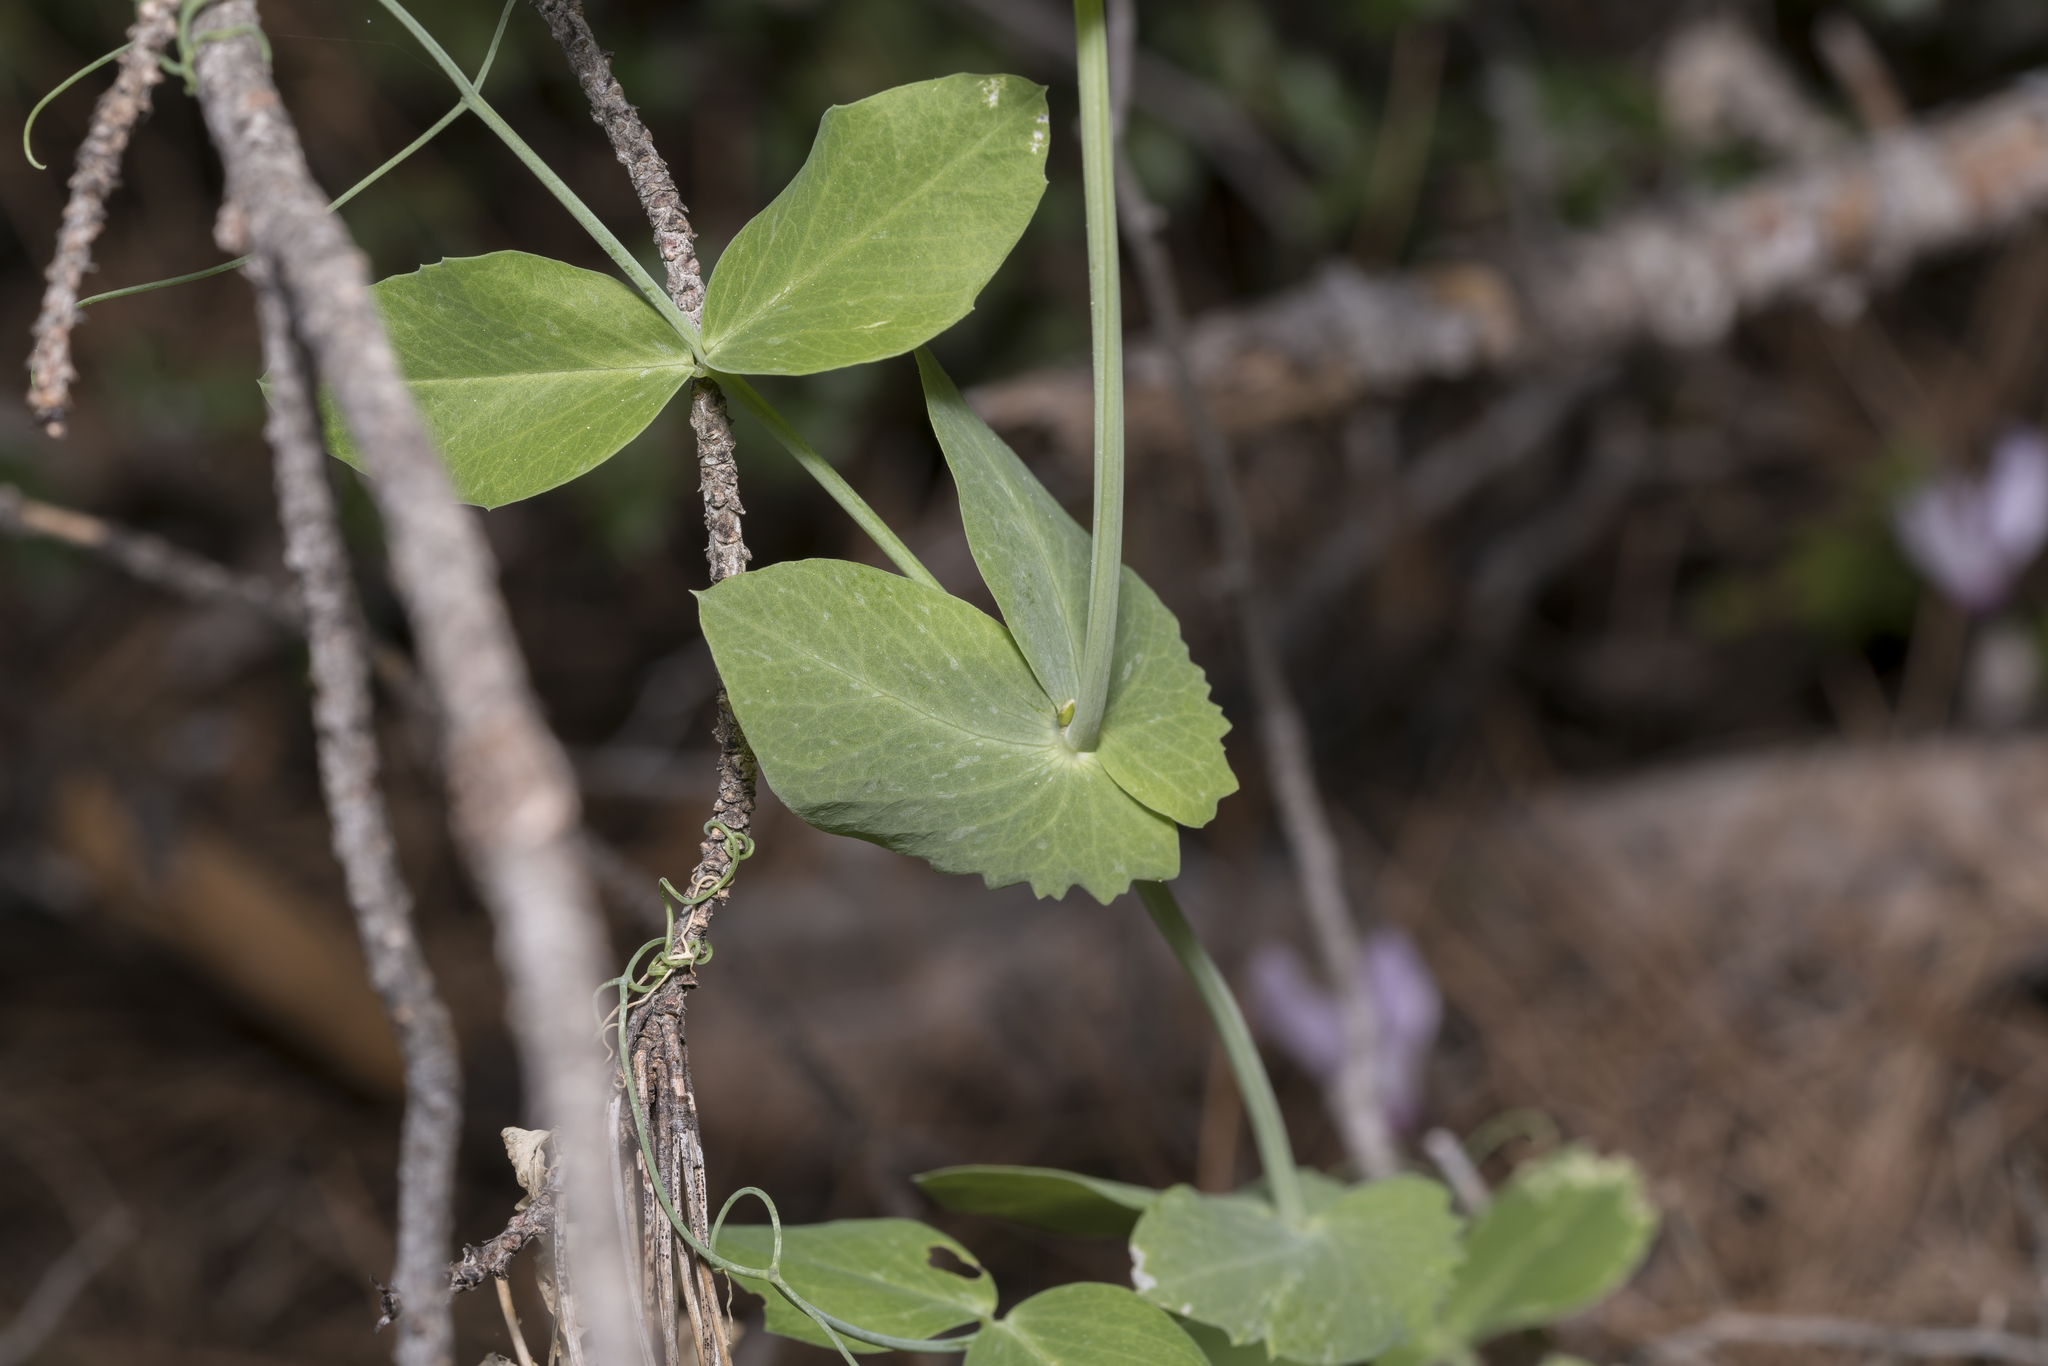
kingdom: Plantae
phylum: Tracheophyta
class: Magnoliopsida
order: Fabales
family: Fabaceae
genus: Lathyrus
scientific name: Lathyrus oleraceus
